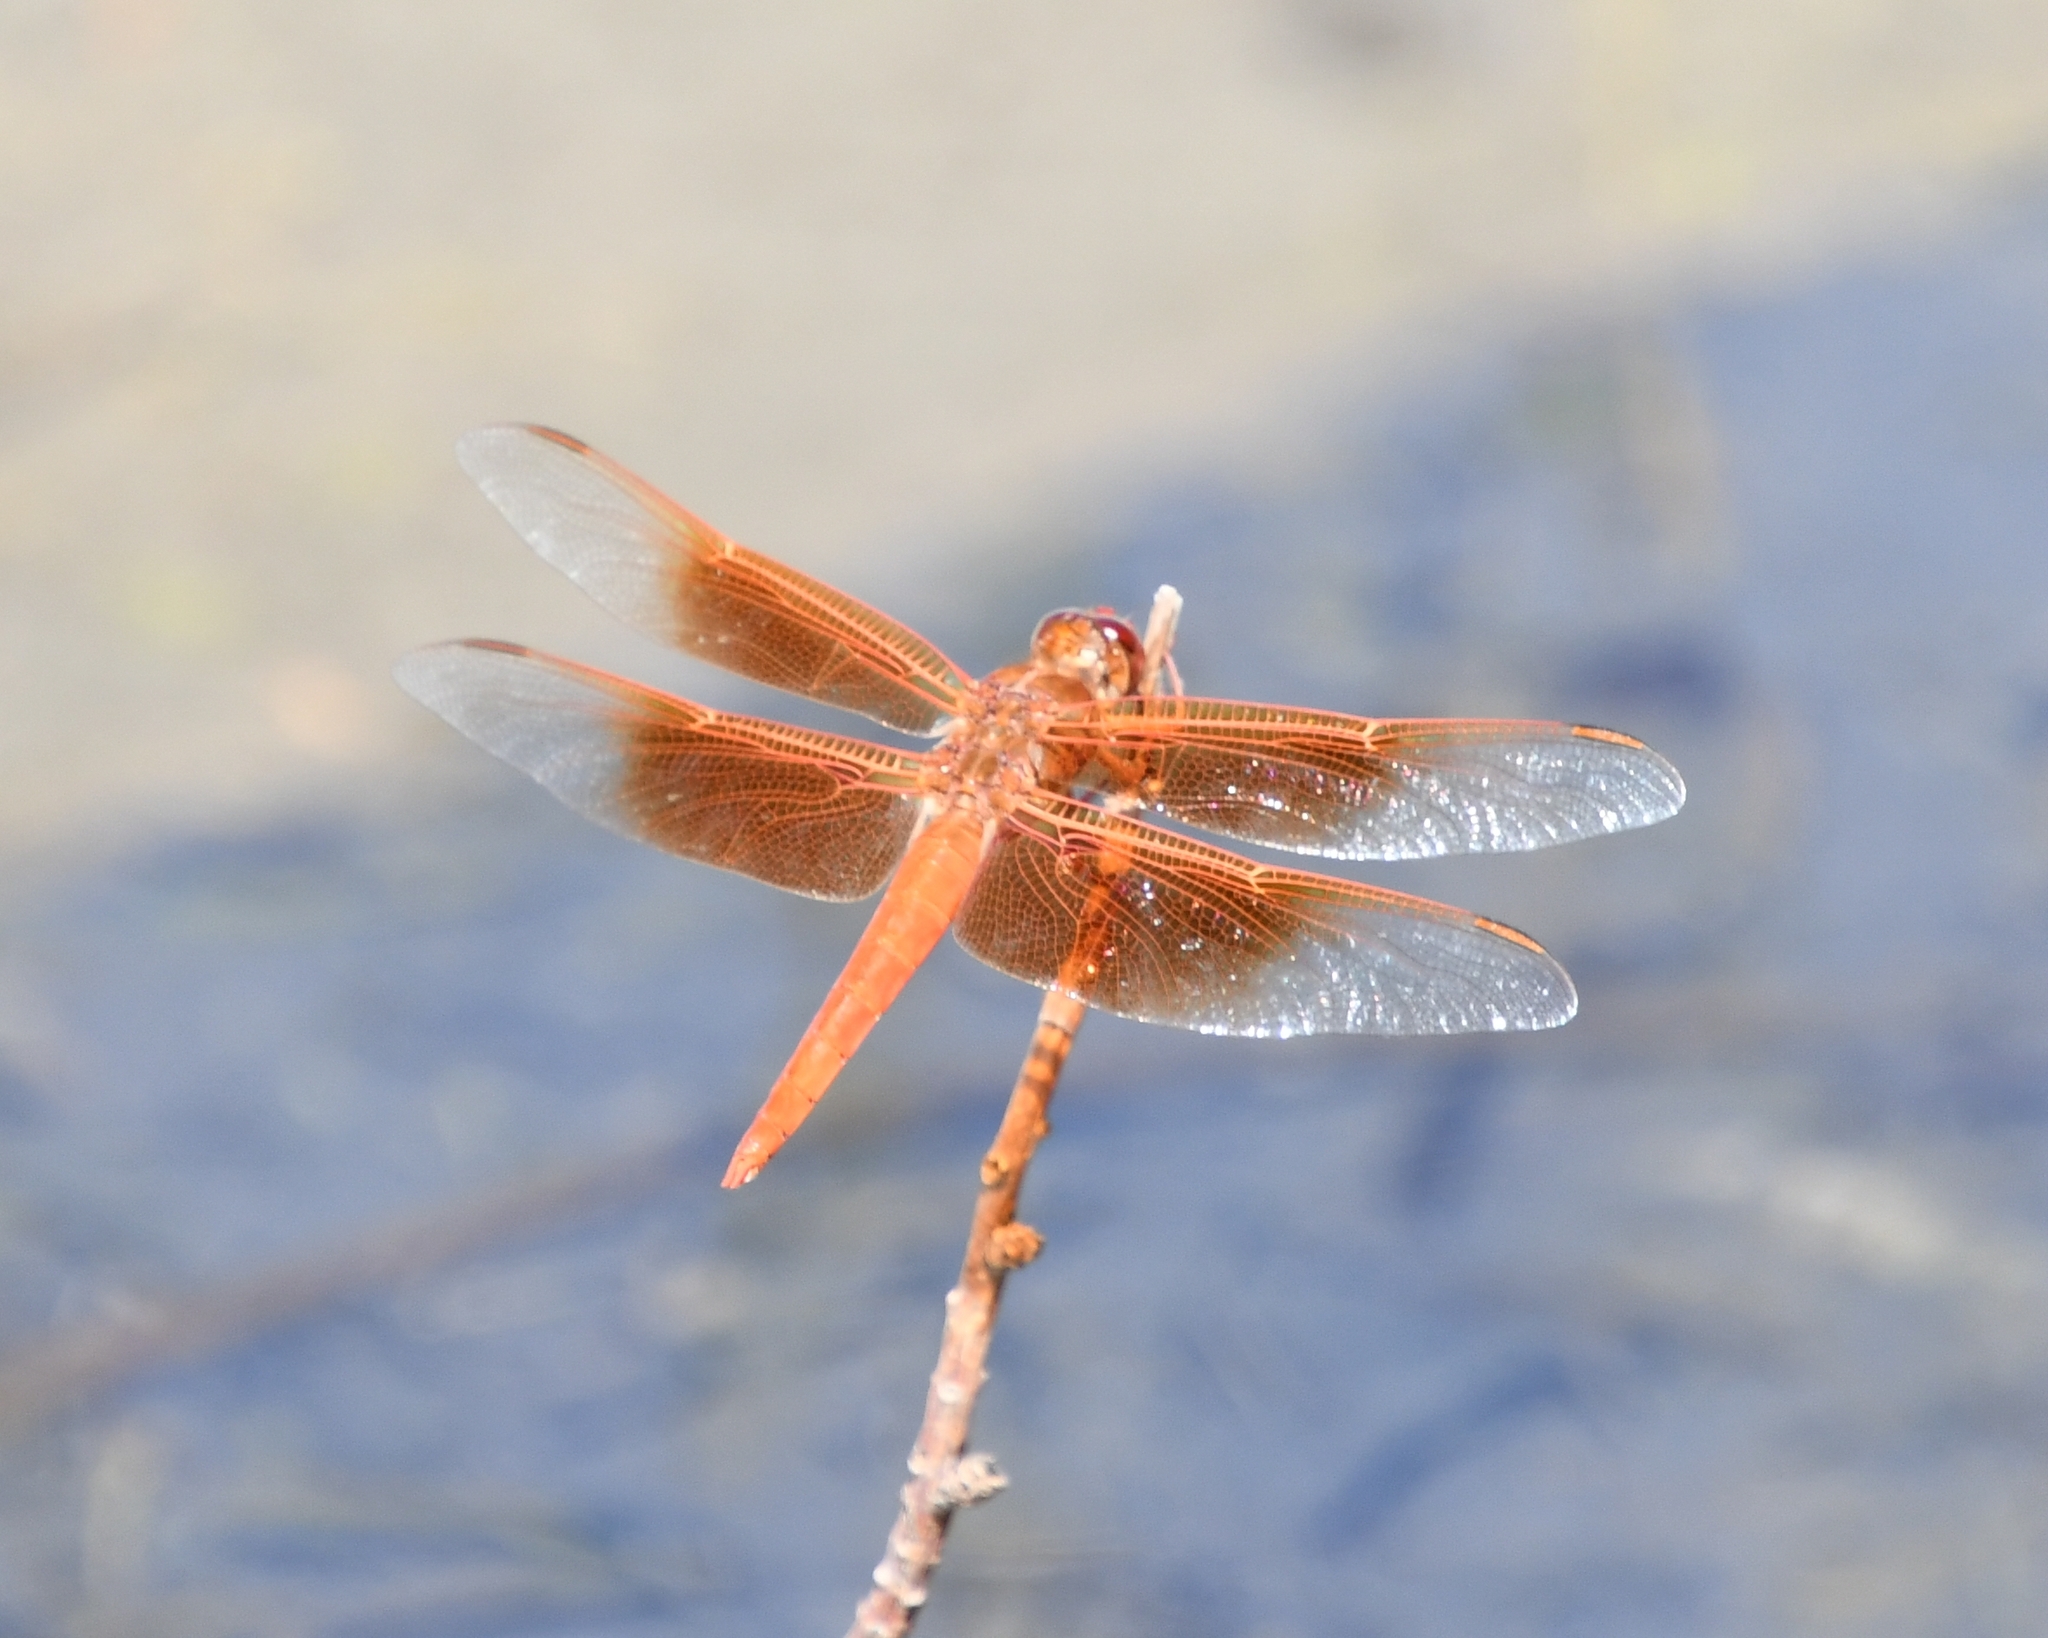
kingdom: Animalia
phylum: Arthropoda
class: Insecta
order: Odonata
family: Libellulidae
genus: Libellula
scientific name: Libellula saturata
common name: Flame skimmer
